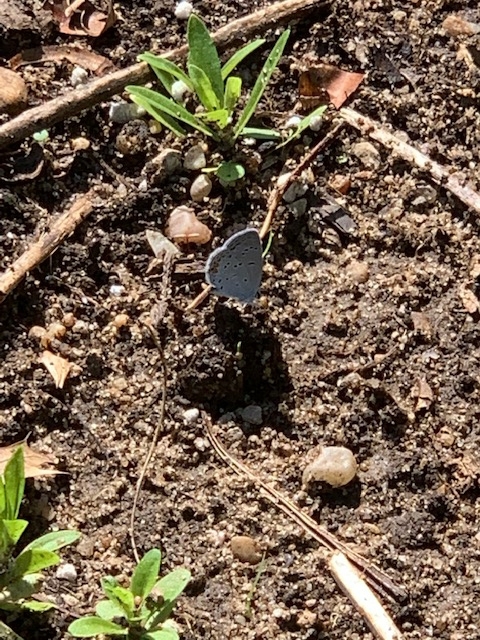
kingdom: Animalia
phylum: Arthropoda
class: Insecta
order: Lepidoptera
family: Lycaenidae
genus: Elkalyce
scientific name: Elkalyce comyntas
